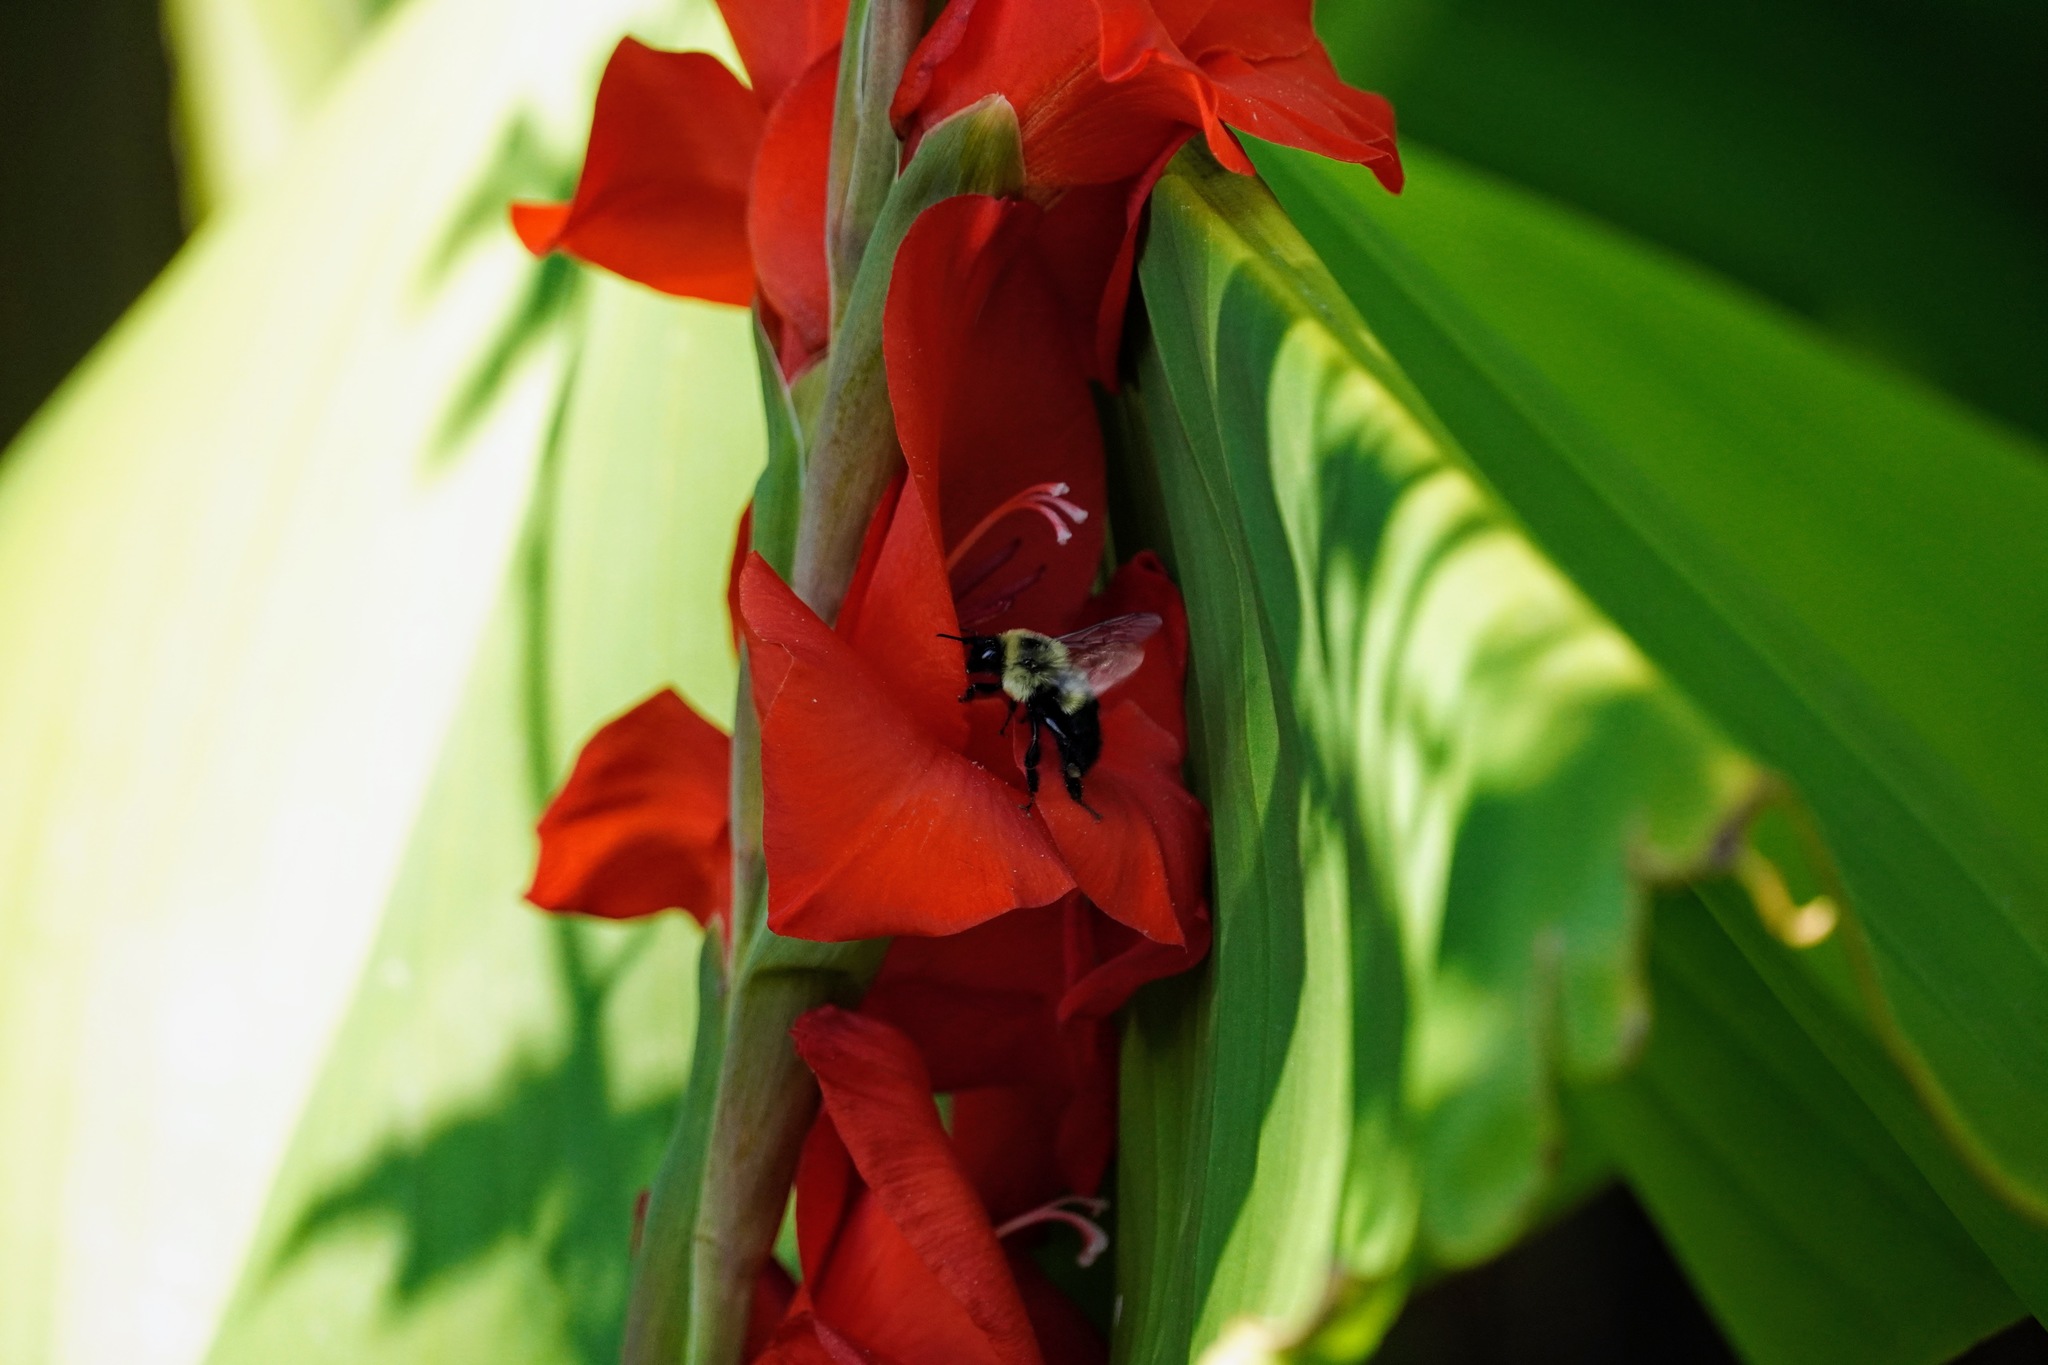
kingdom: Animalia
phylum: Arthropoda
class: Insecta
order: Hymenoptera
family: Apidae
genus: Bombus
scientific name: Bombus impatiens
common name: Common eastern bumble bee
